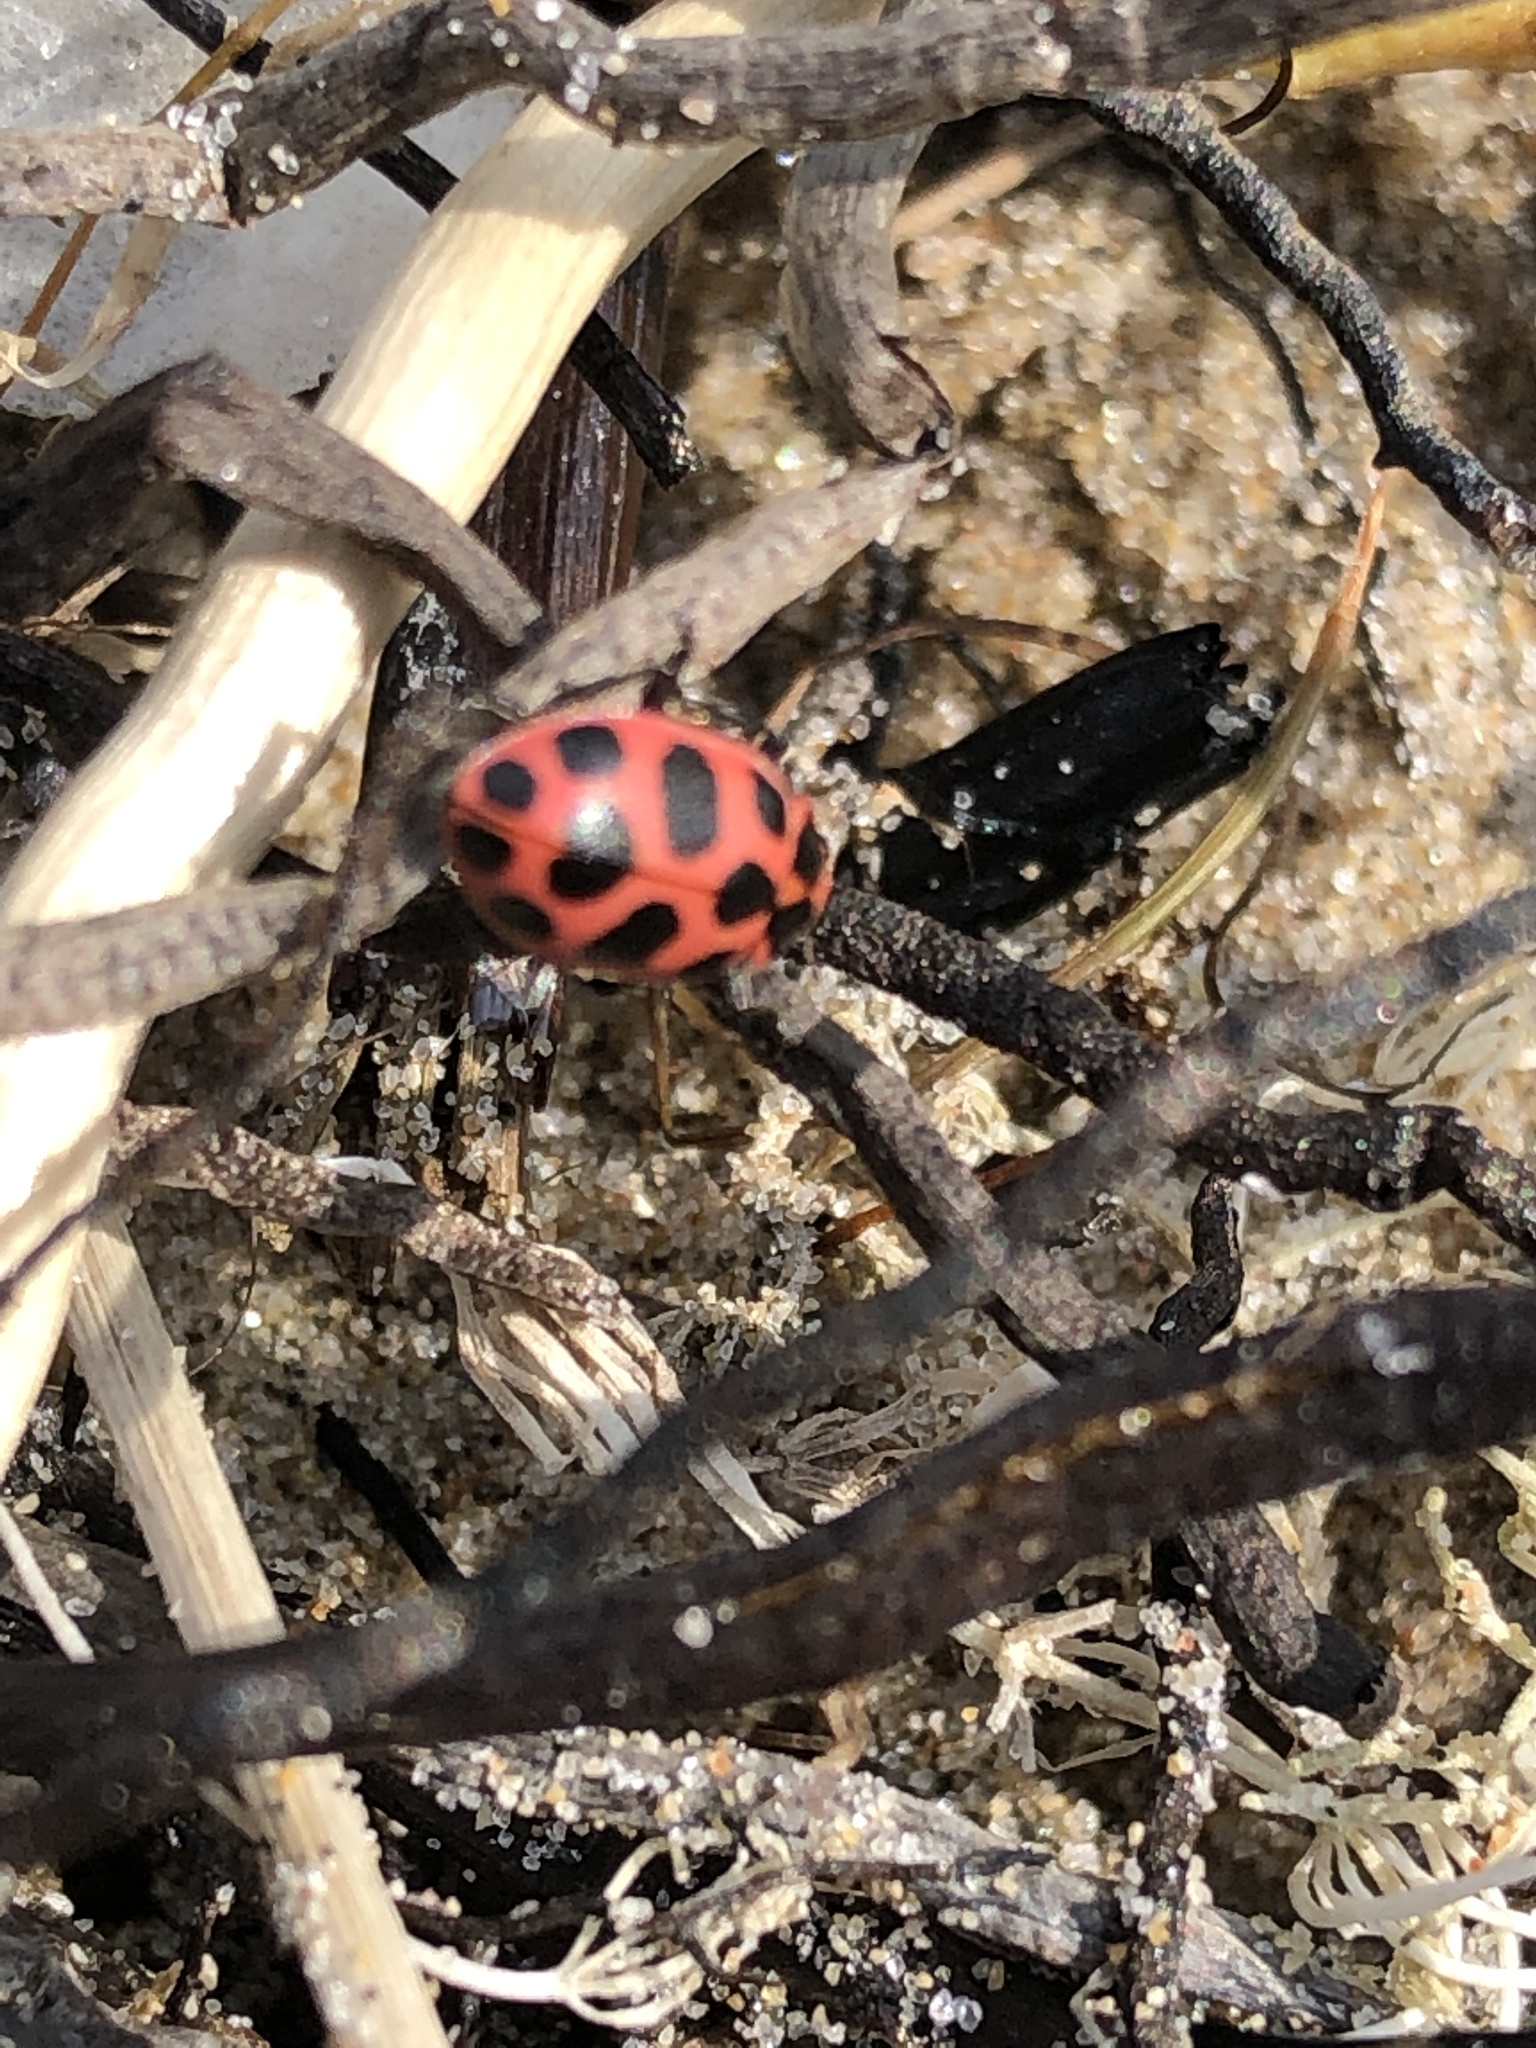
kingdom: Animalia
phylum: Arthropoda
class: Insecta
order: Coleoptera
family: Coccinellidae
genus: Coleomegilla
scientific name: Coleomegilla maculata
